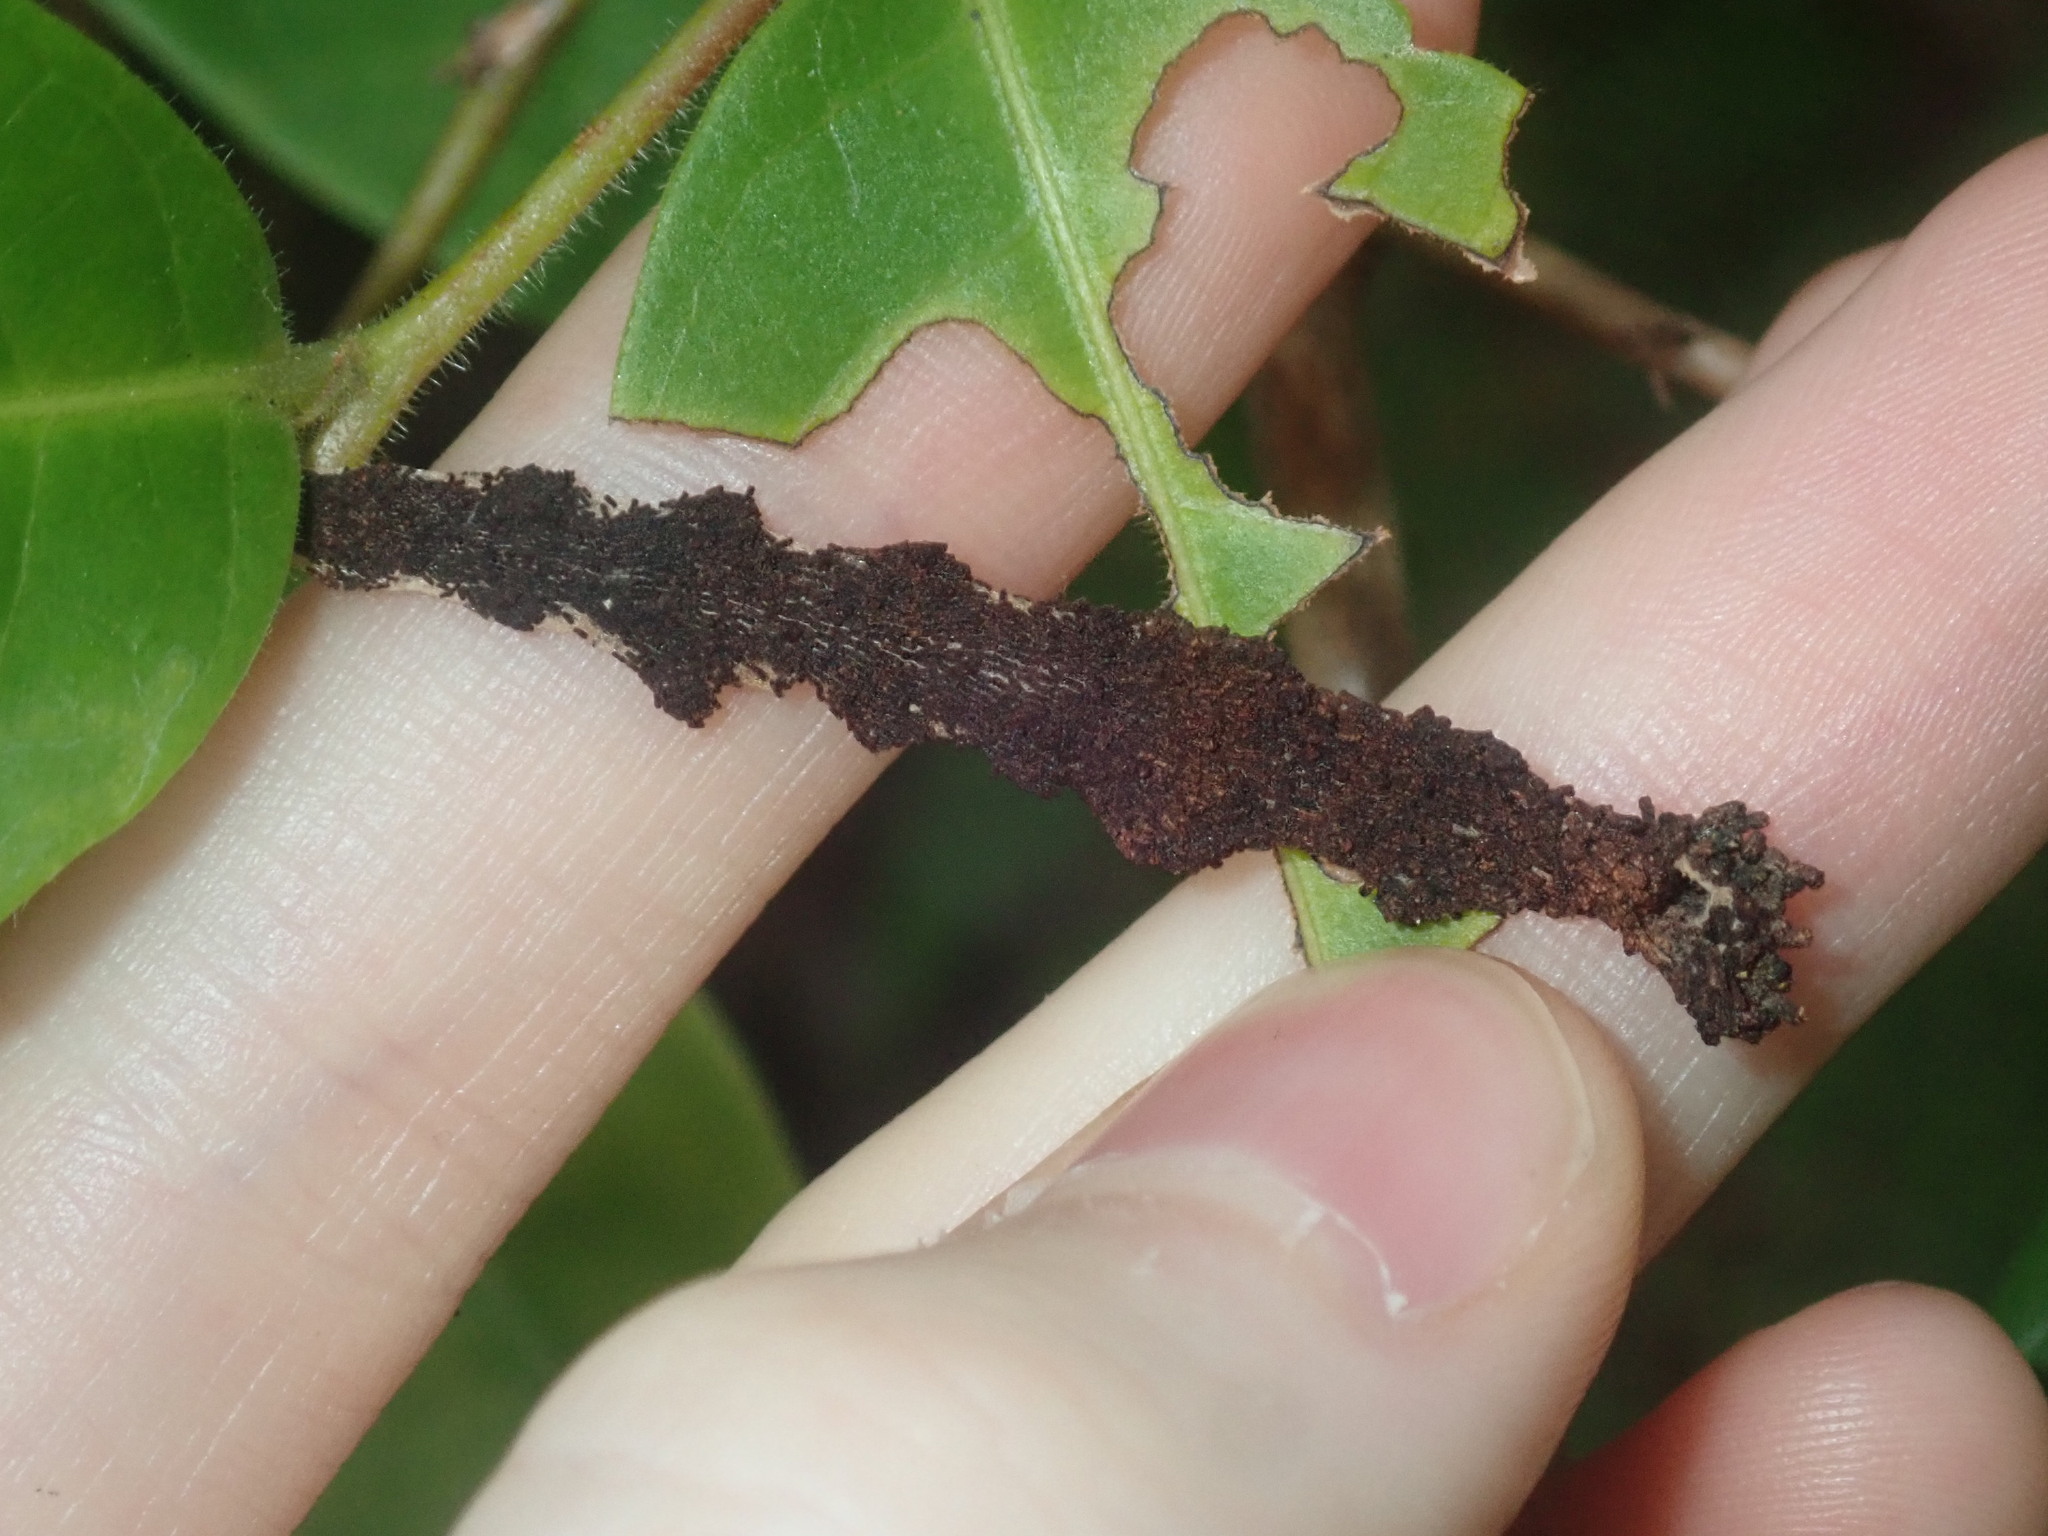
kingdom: Animalia
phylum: Arthropoda
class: Insecta
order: Lepidoptera
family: Pyralidae
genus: Stericta
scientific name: Stericta orchidivora
